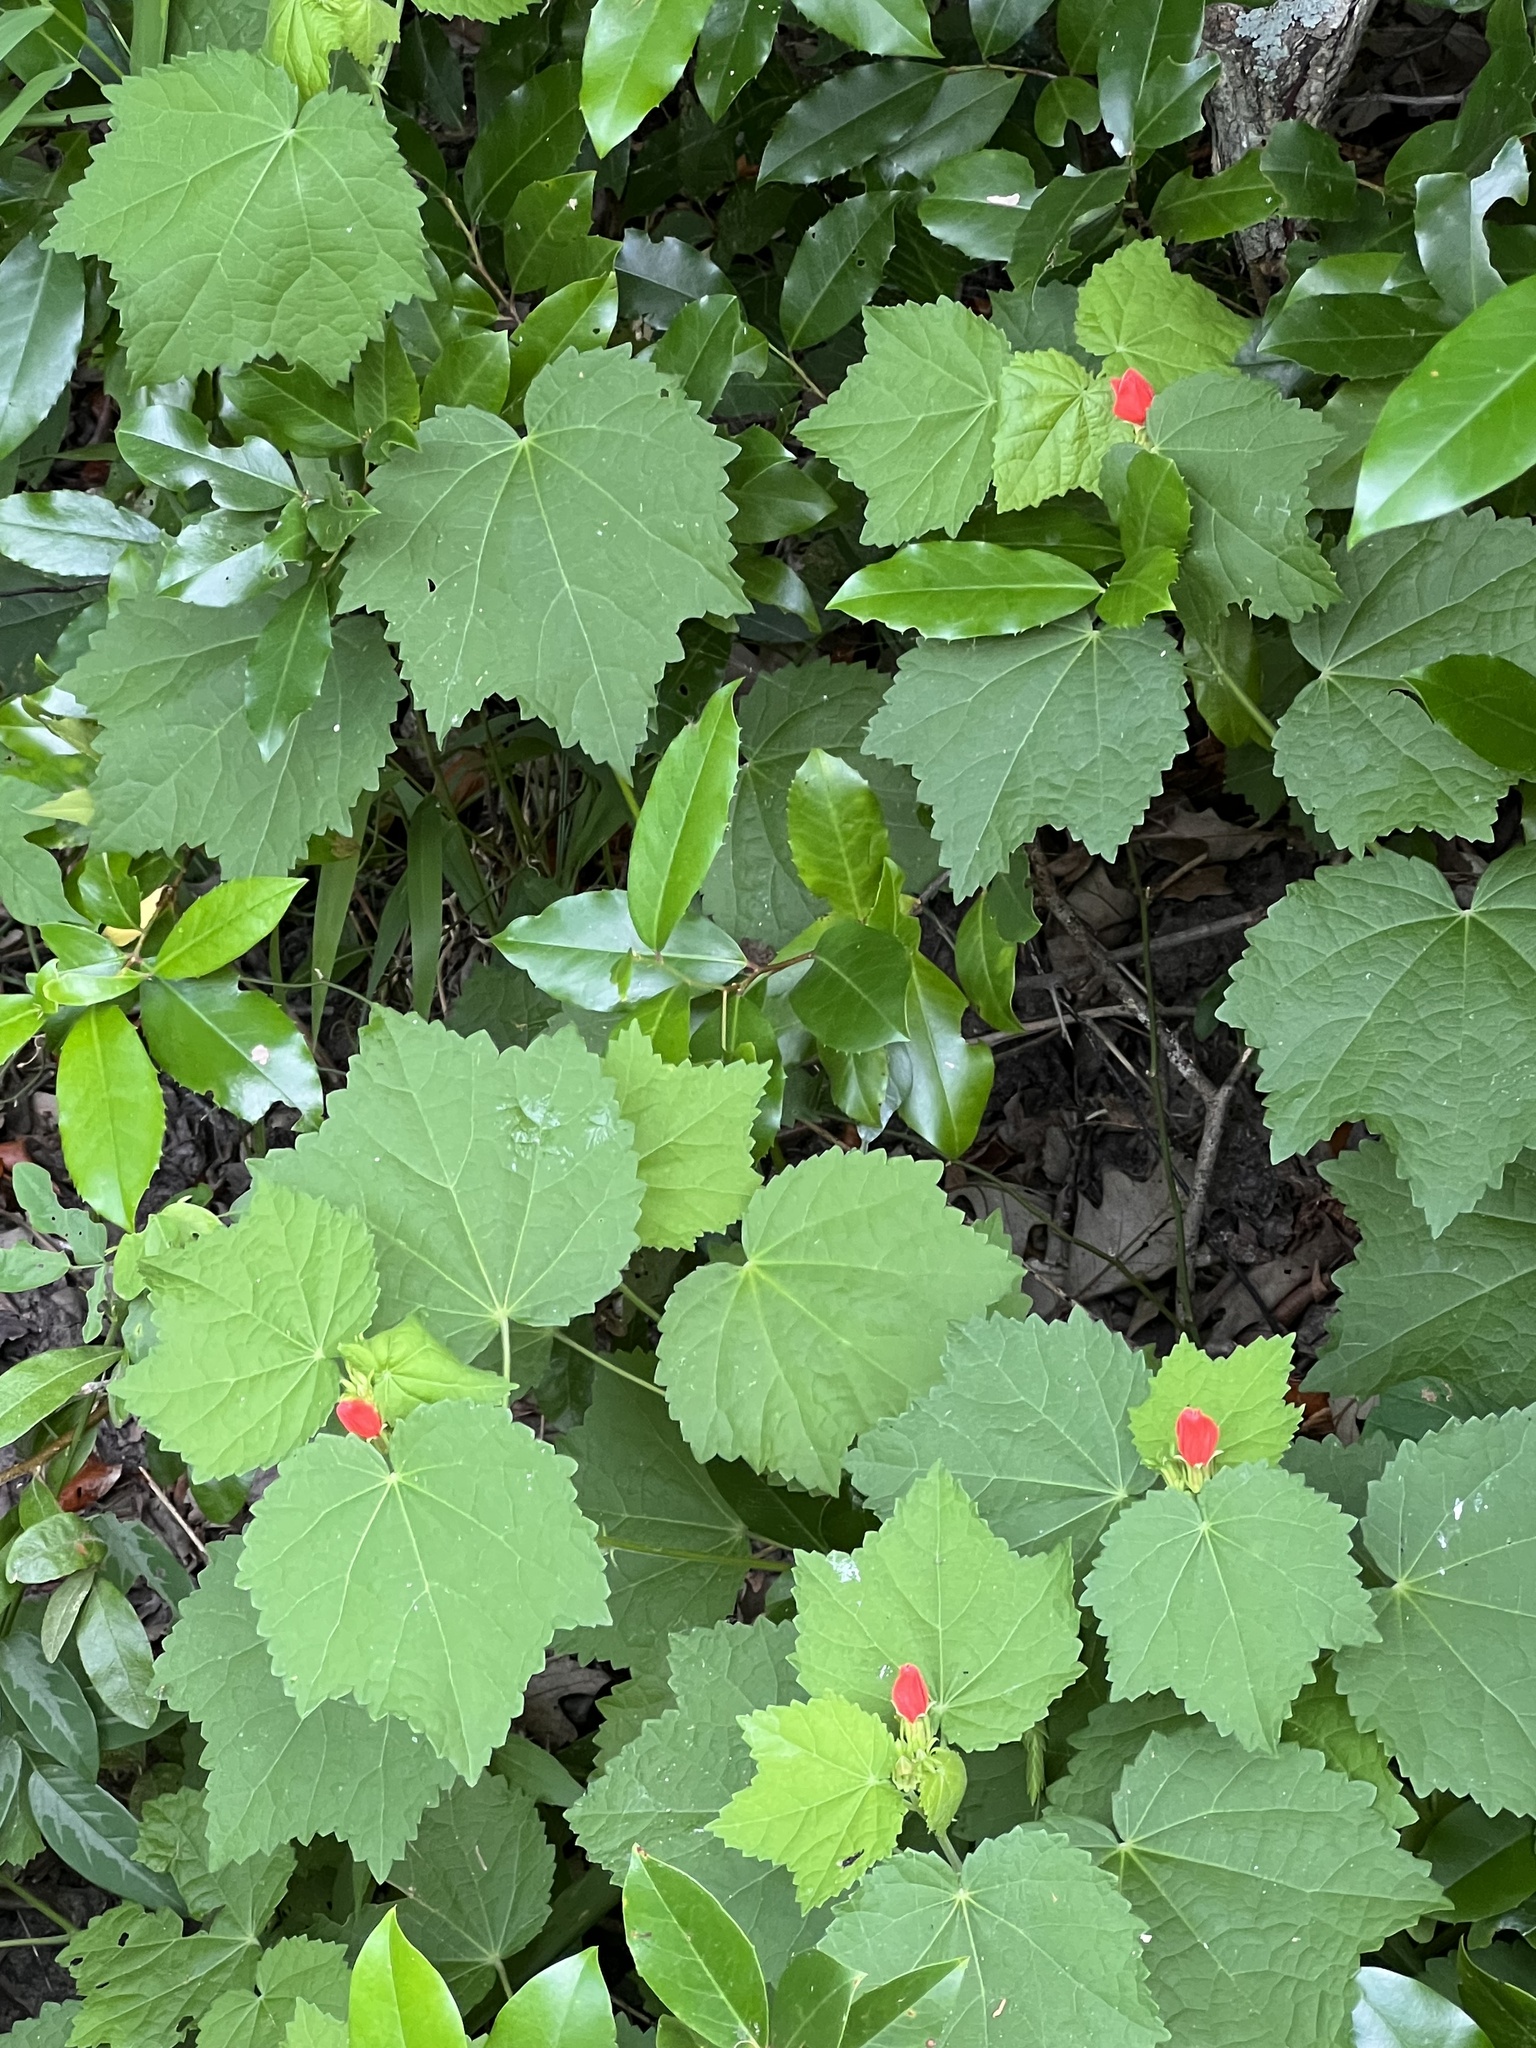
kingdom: Plantae
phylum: Tracheophyta
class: Magnoliopsida
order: Malvales
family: Malvaceae
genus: Malvaviscus
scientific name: Malvaviscus arboreus
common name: Wax mallow
